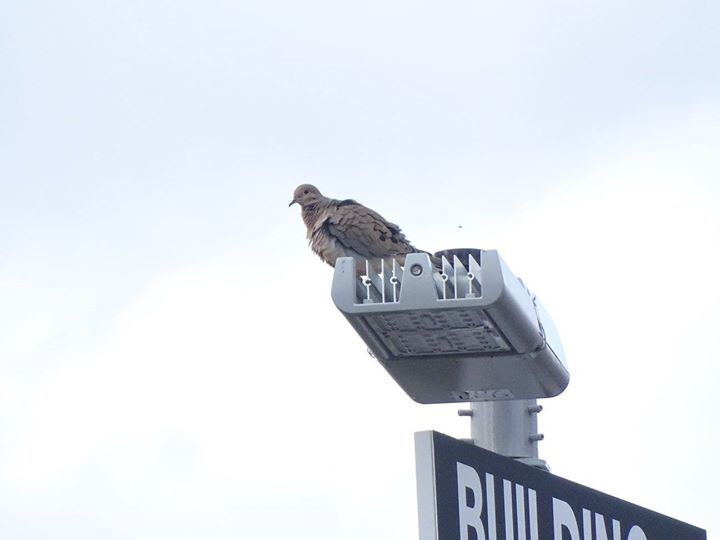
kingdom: Animalia
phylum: Chordata
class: Aves
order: Columbiformes
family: Columbidae
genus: Zenaida
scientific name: Zenaida macroura
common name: Mourning dove
